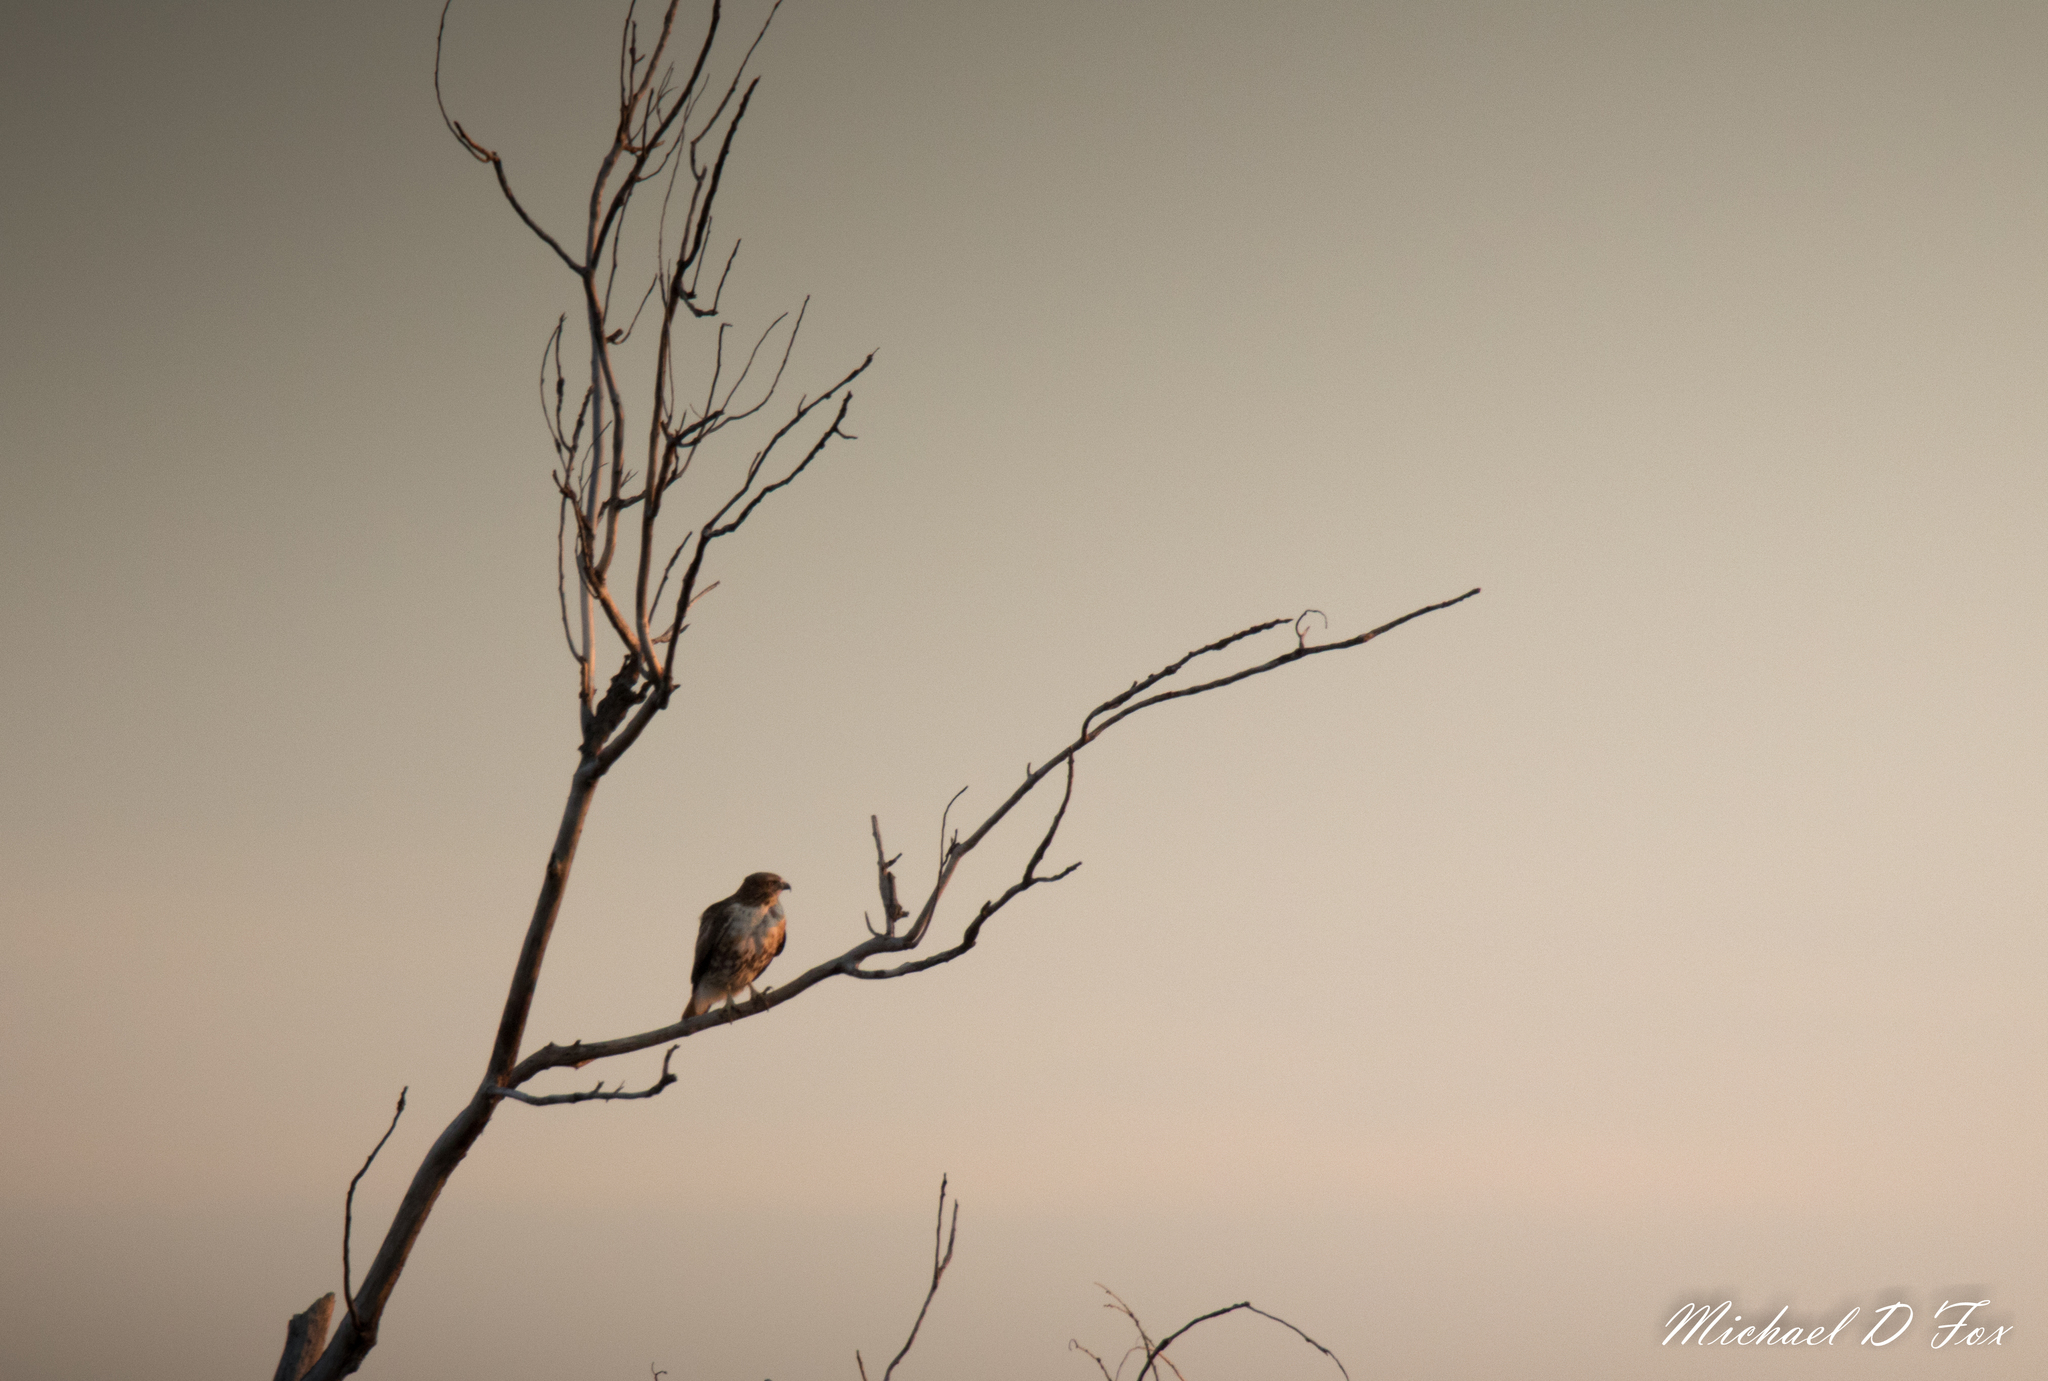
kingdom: Animalia
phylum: Chordata
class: Aves
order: Accipitriformes
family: Accipitridae
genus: Buteo
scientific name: Buteo jamaicensis
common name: Red-tailed hawk
